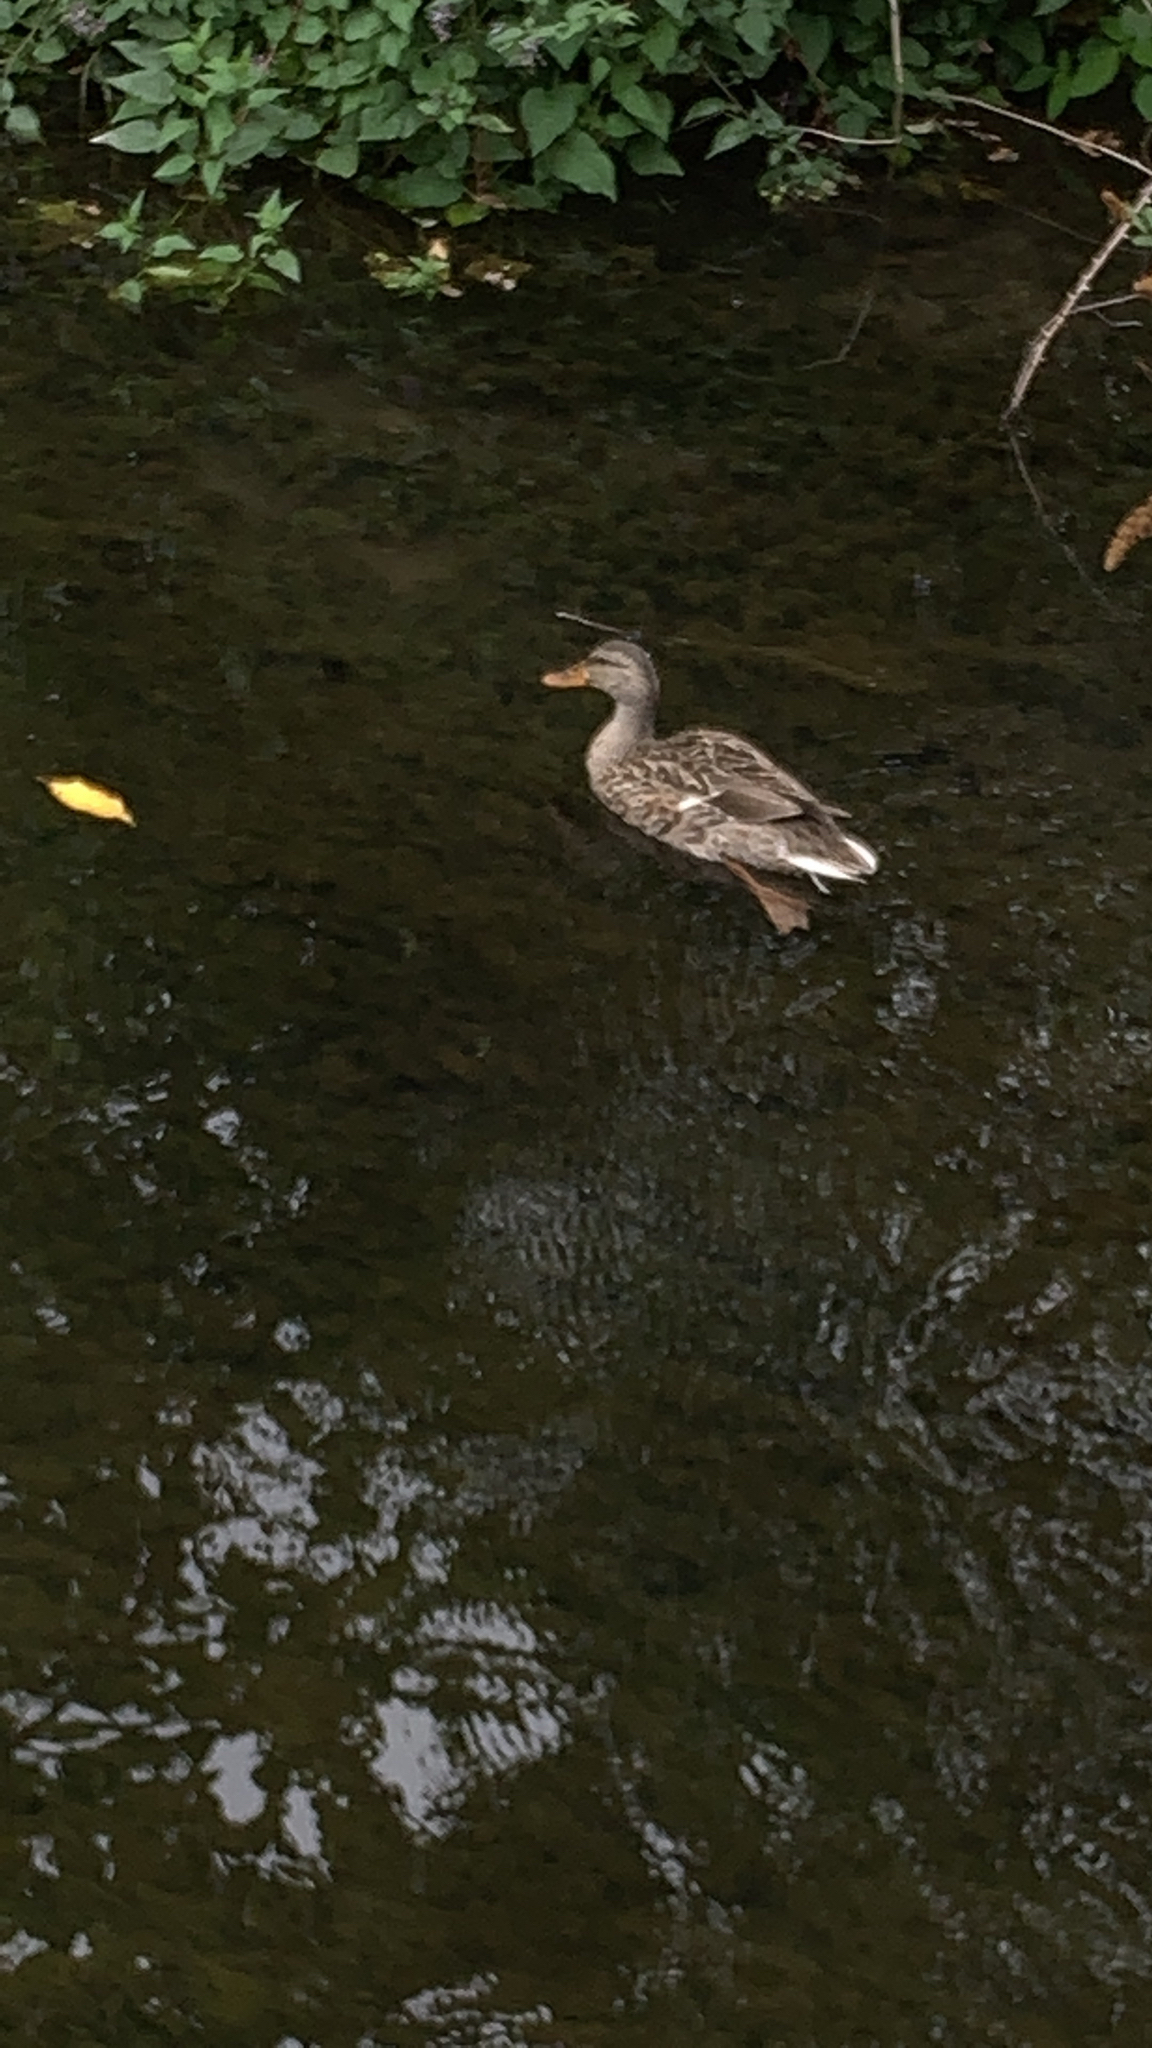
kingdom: Animalia
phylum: Chordata
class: Aves
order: Anseriformes
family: Anatidae
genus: Anas
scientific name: Anas platyrhynchos
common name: Mallard
